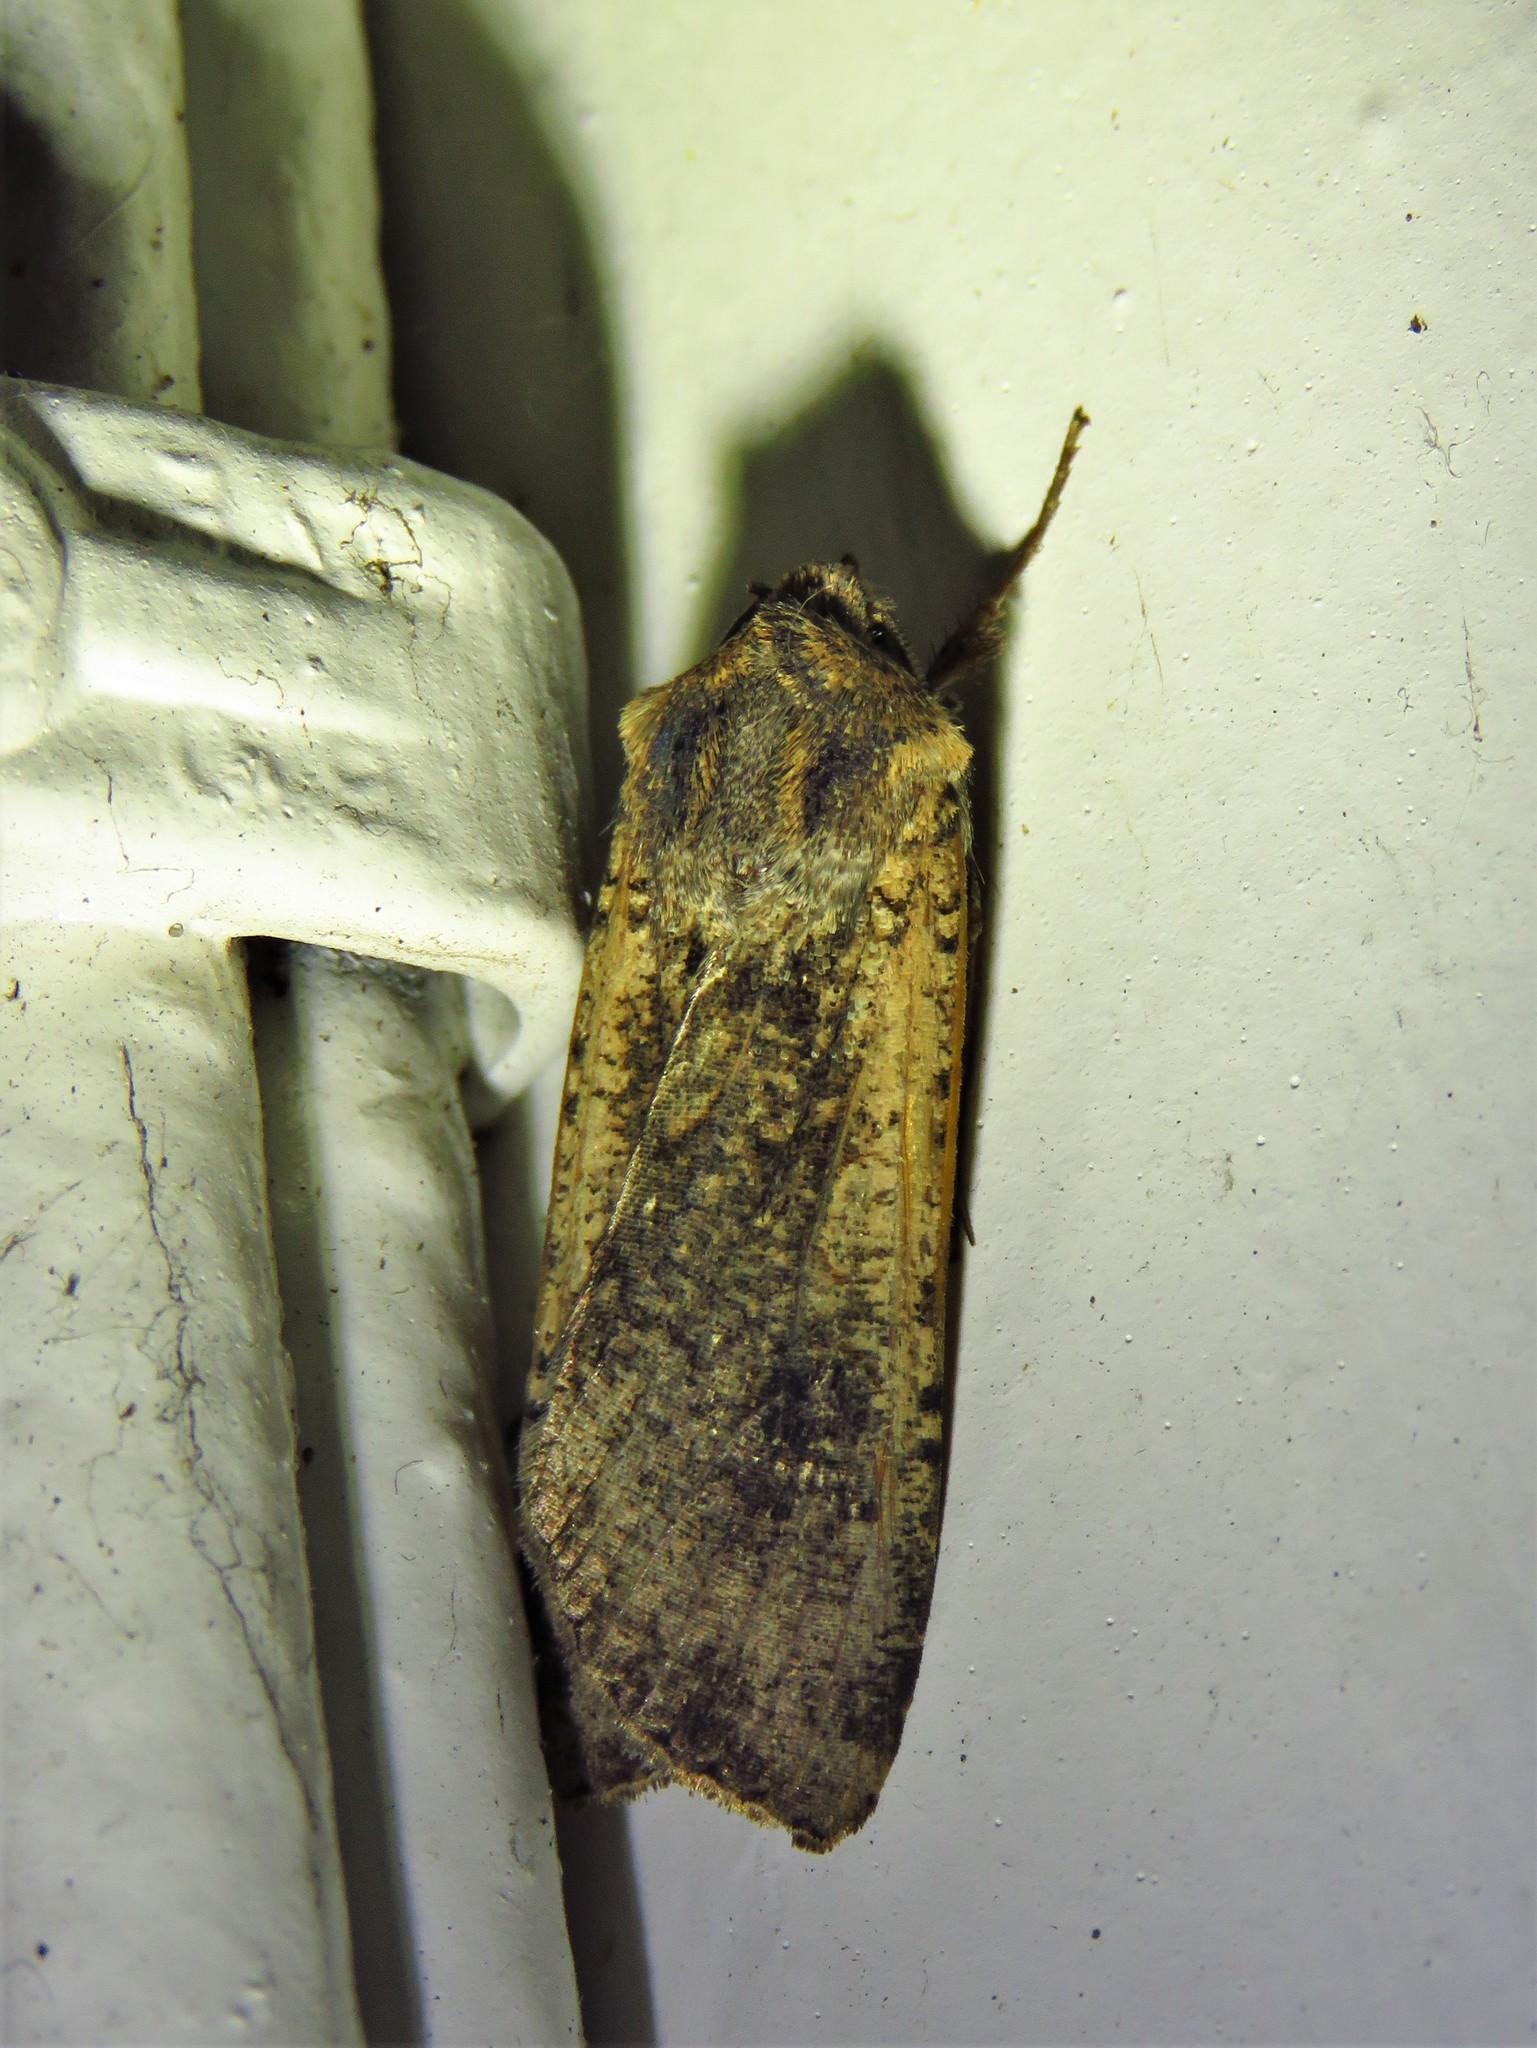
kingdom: Animalia
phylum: Arthropoda
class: Insecta
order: Lepidoptera
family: Noctuidae
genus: Peridroma
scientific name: Peridroma saucia
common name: Pearly underwing
